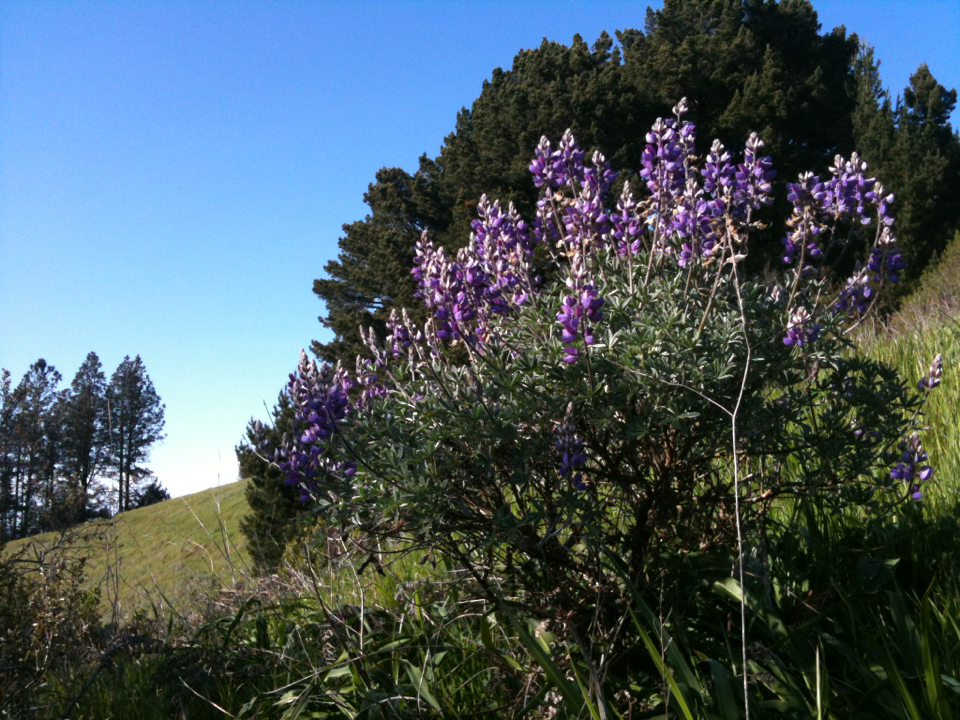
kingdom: Plantae
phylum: Tracheophyta
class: Magnoliopsida
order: Fabales
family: Fabaceae
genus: Lupinus
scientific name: Lupinus albifrons
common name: Foothill lupine
